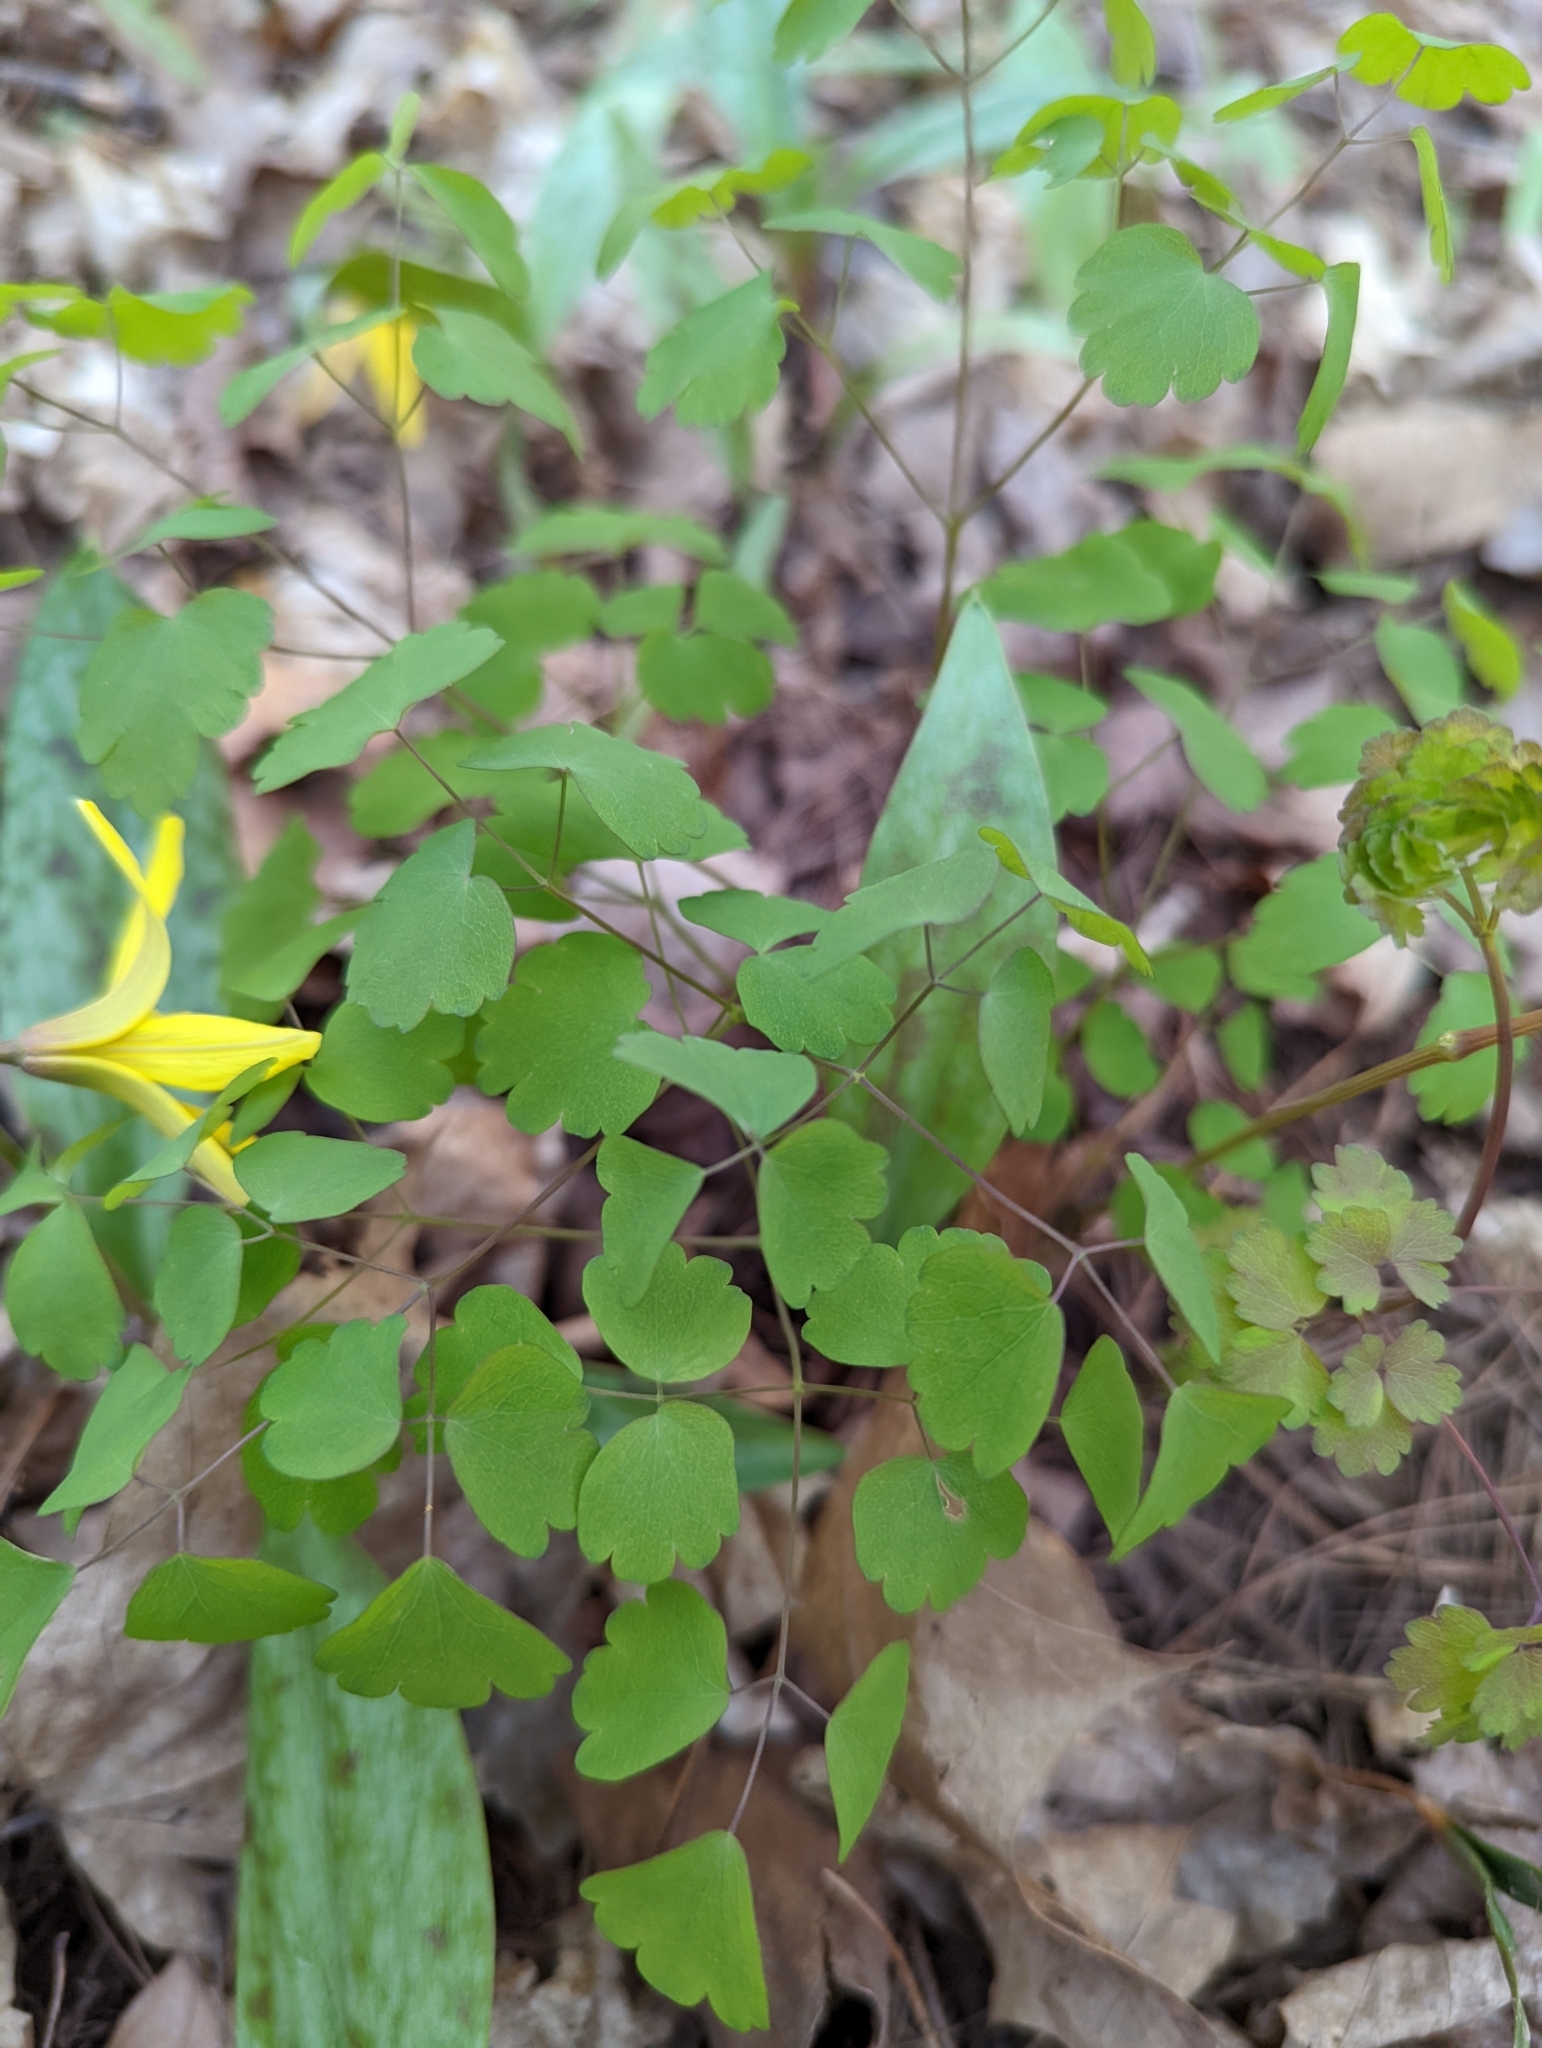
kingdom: Plantae
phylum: Tracheophyta
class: Magnoliopsida
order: Ranunculales
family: Ranunculaceae
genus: Thalictrum
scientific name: Thalictrum dioicum
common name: Early meadow-rue
